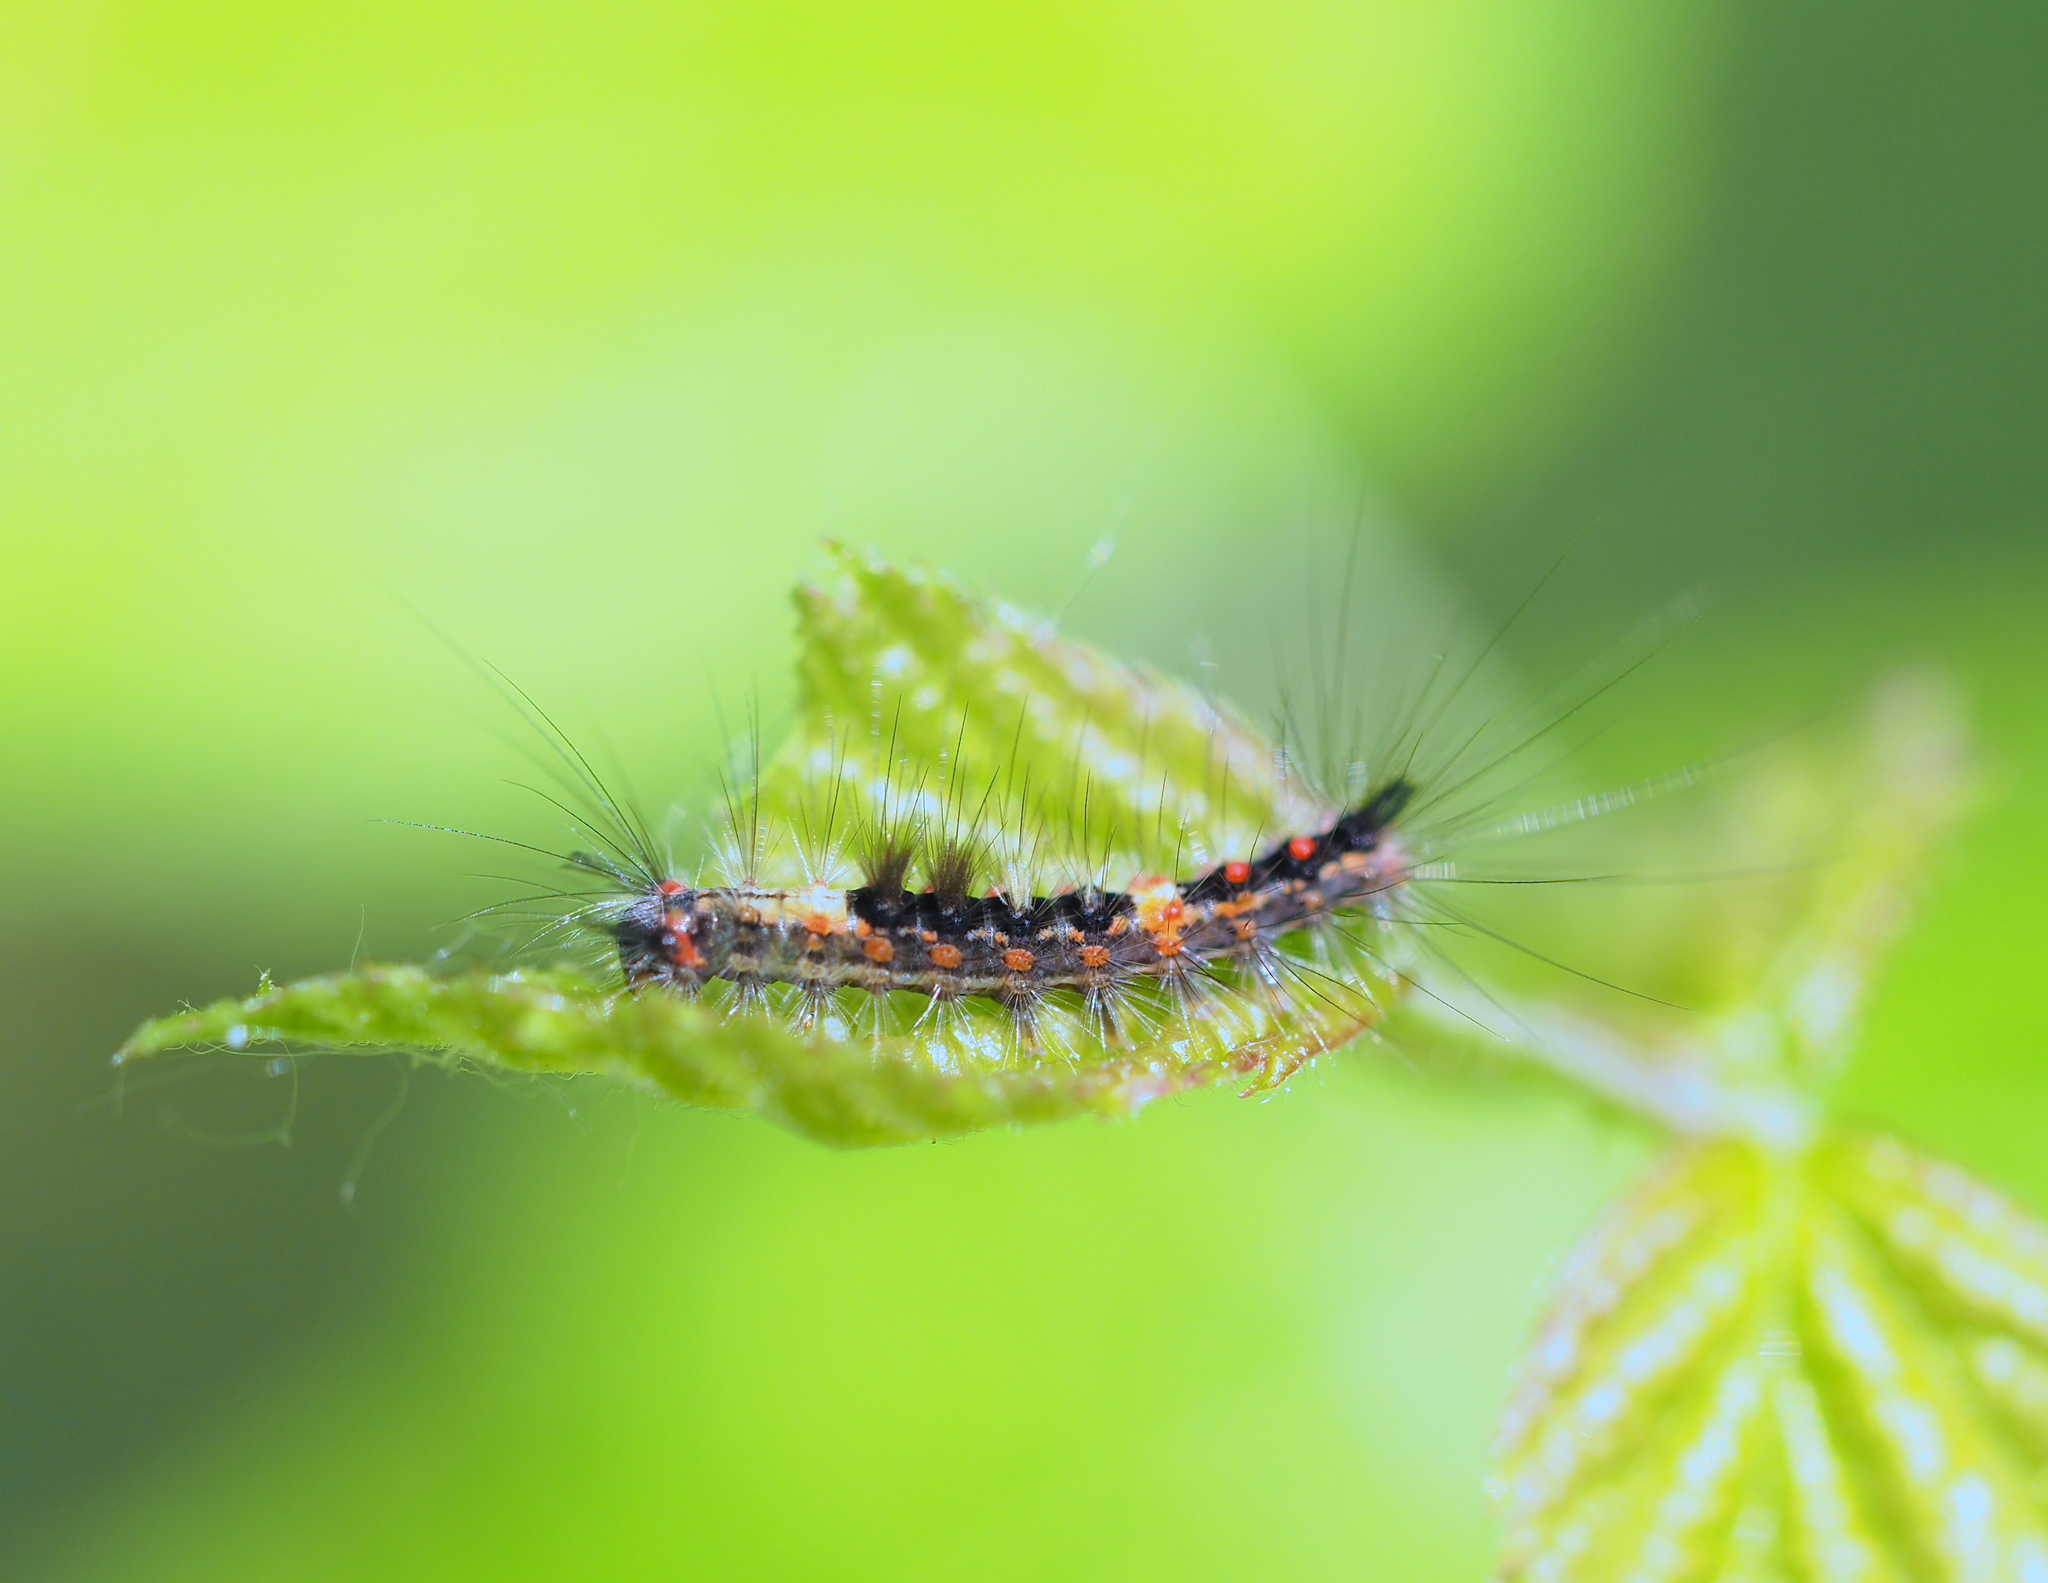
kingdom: Animalia
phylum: Arthropoda
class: Insecta
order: Lepidoptera
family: Erebidae
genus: Orgyia
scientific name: Orgyia antiqua
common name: Vapourer
